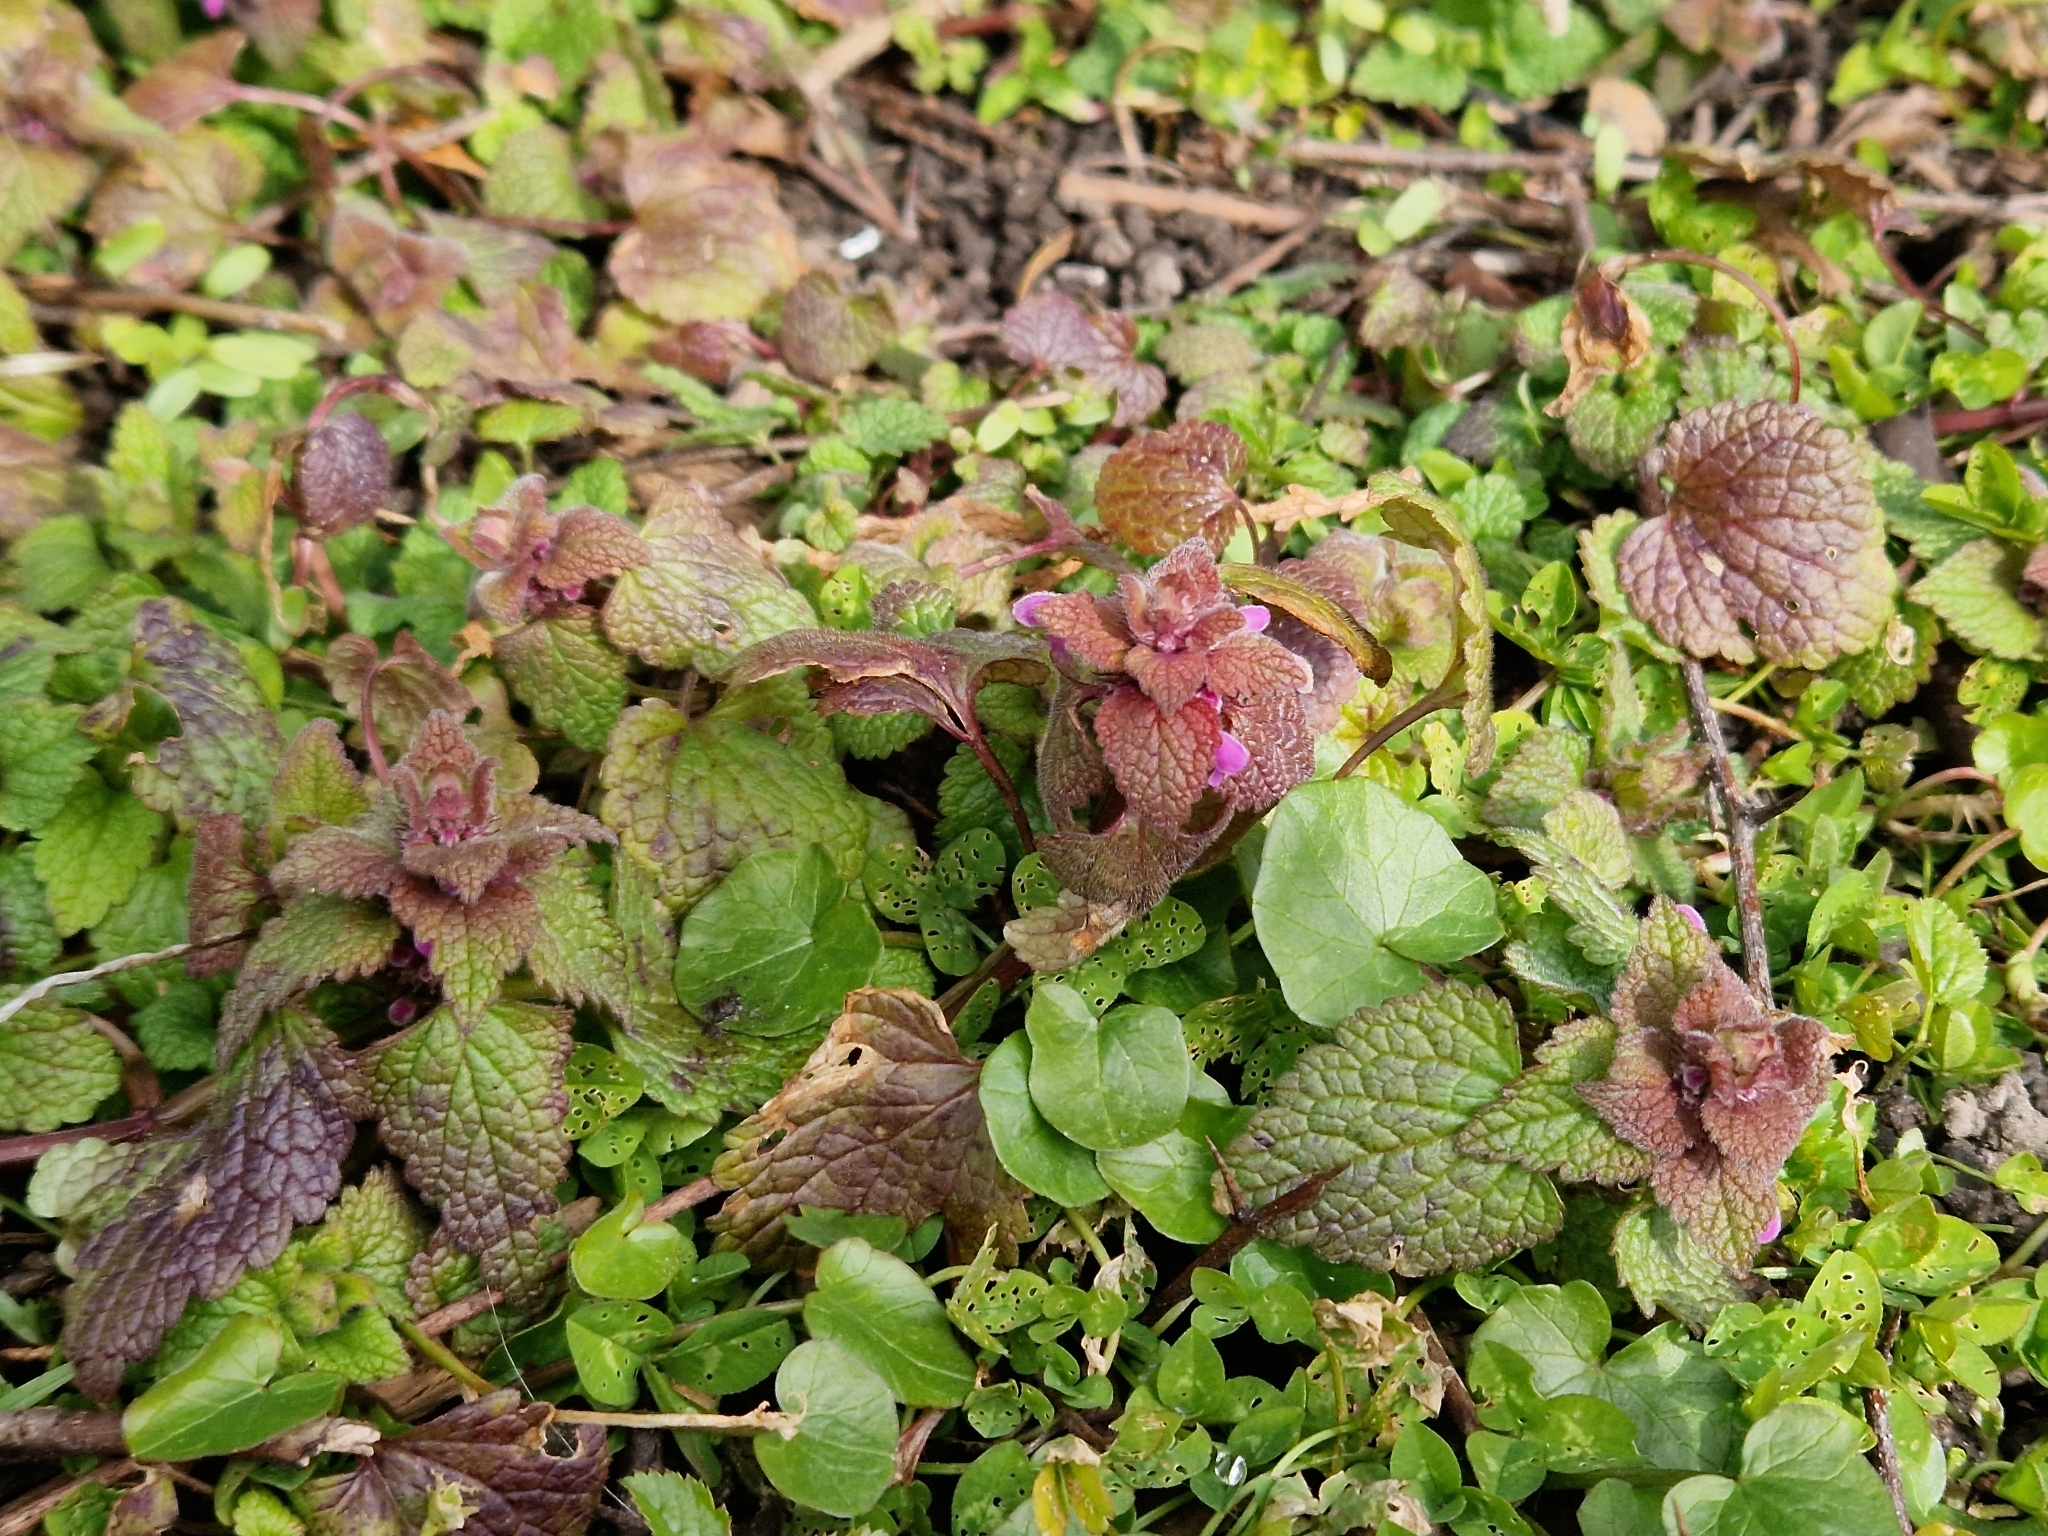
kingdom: Plantae
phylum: Tracheophyta
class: Magnoliopsida
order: Lamiales
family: Lamiaceae
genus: Lamium
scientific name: Lamium purpureum
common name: Red dead-nettle
